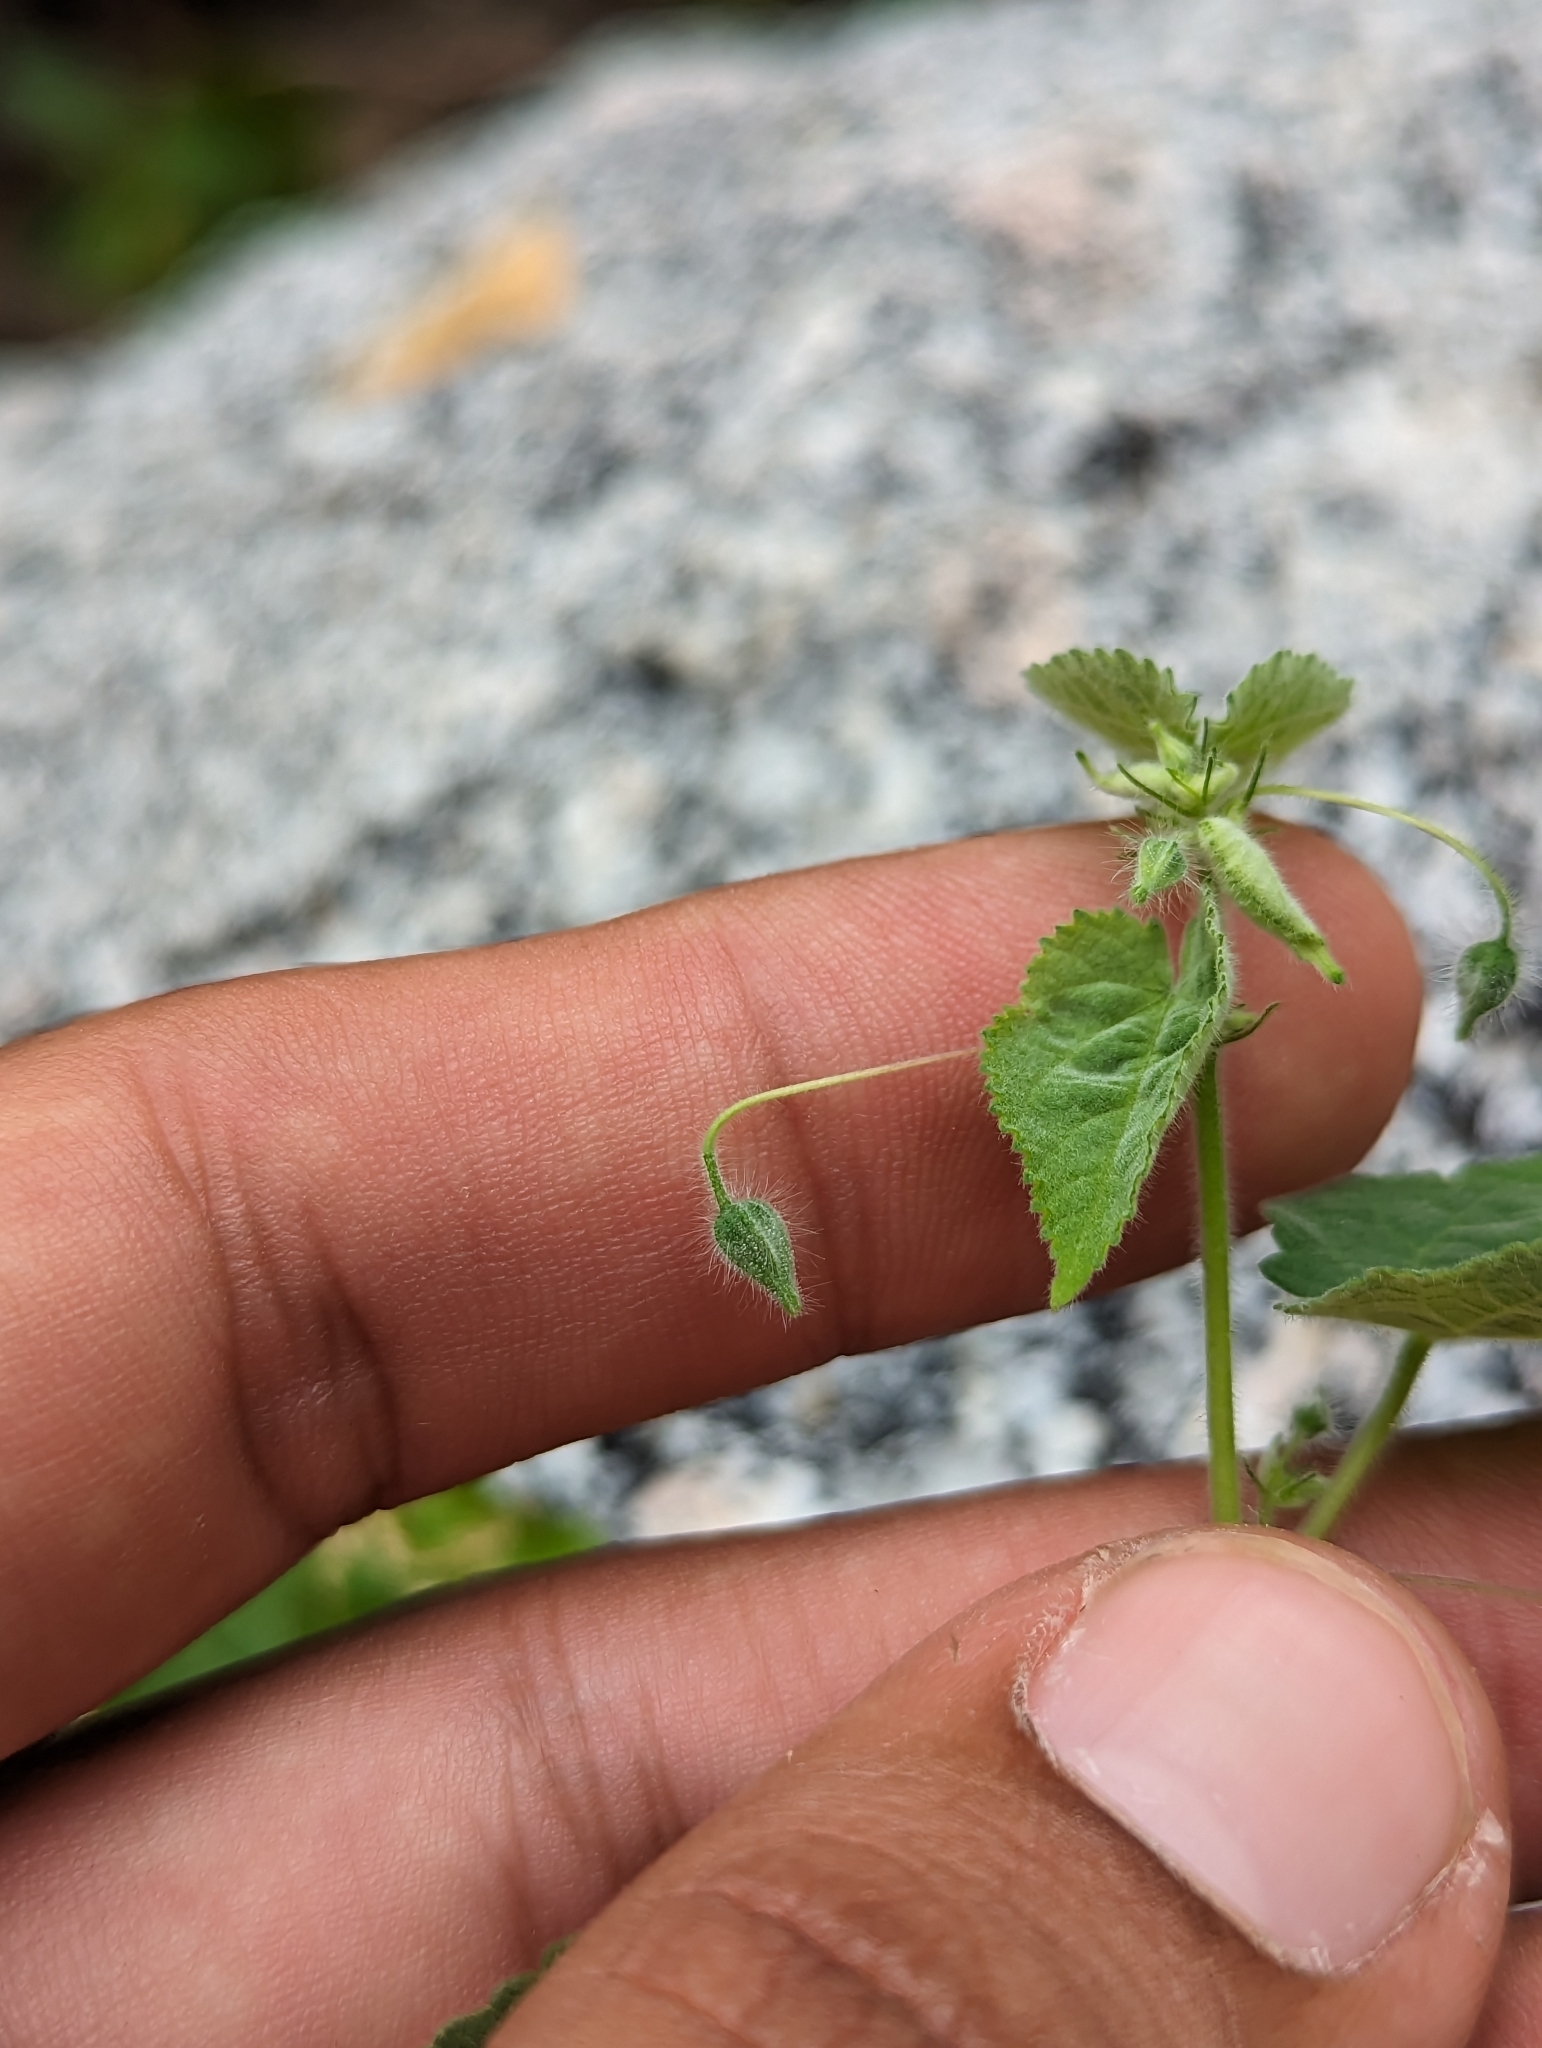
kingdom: Plantae
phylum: Tracheophyta
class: Magnoliopsida
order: Malvales
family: Malvaceae
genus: Herissantia
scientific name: Herissantia crispa
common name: Bladdermallow
